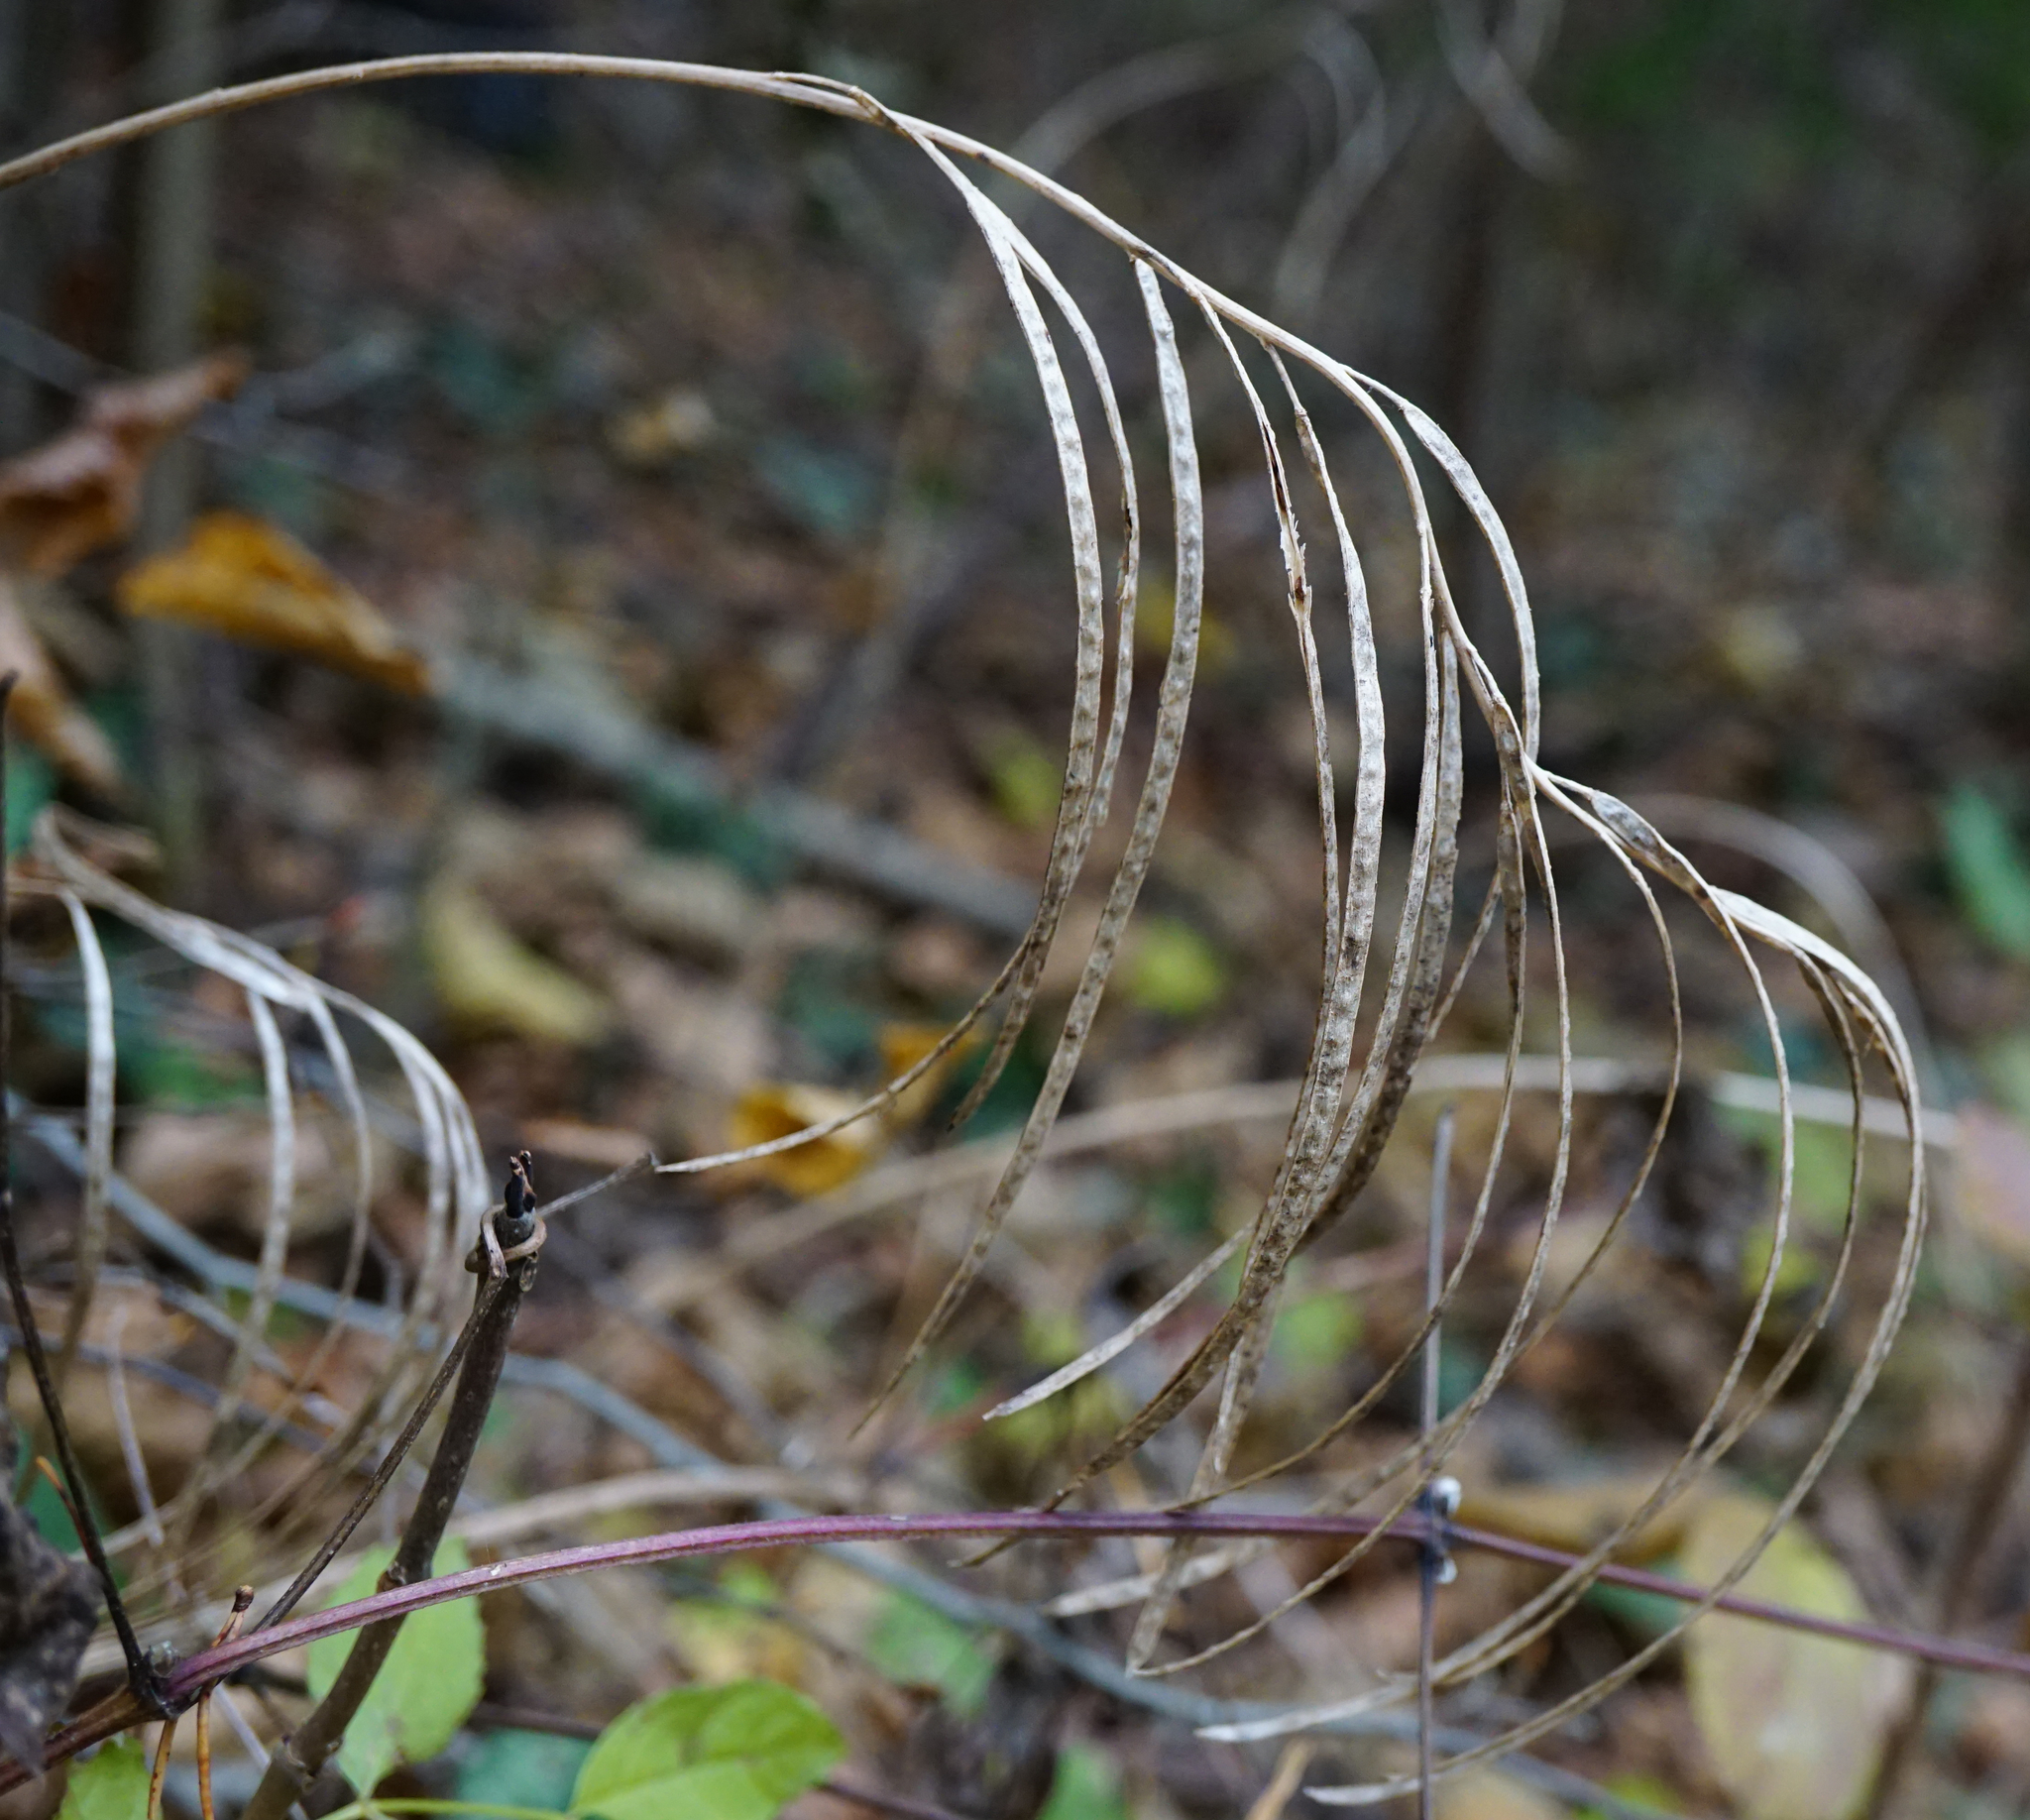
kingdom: Plantae
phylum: Tracheophyta
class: Magnoliopsida
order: Brassicales
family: Brassicaceae
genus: Pseudoturritis
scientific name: Pseudoturritis turrita
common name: Tower cress
